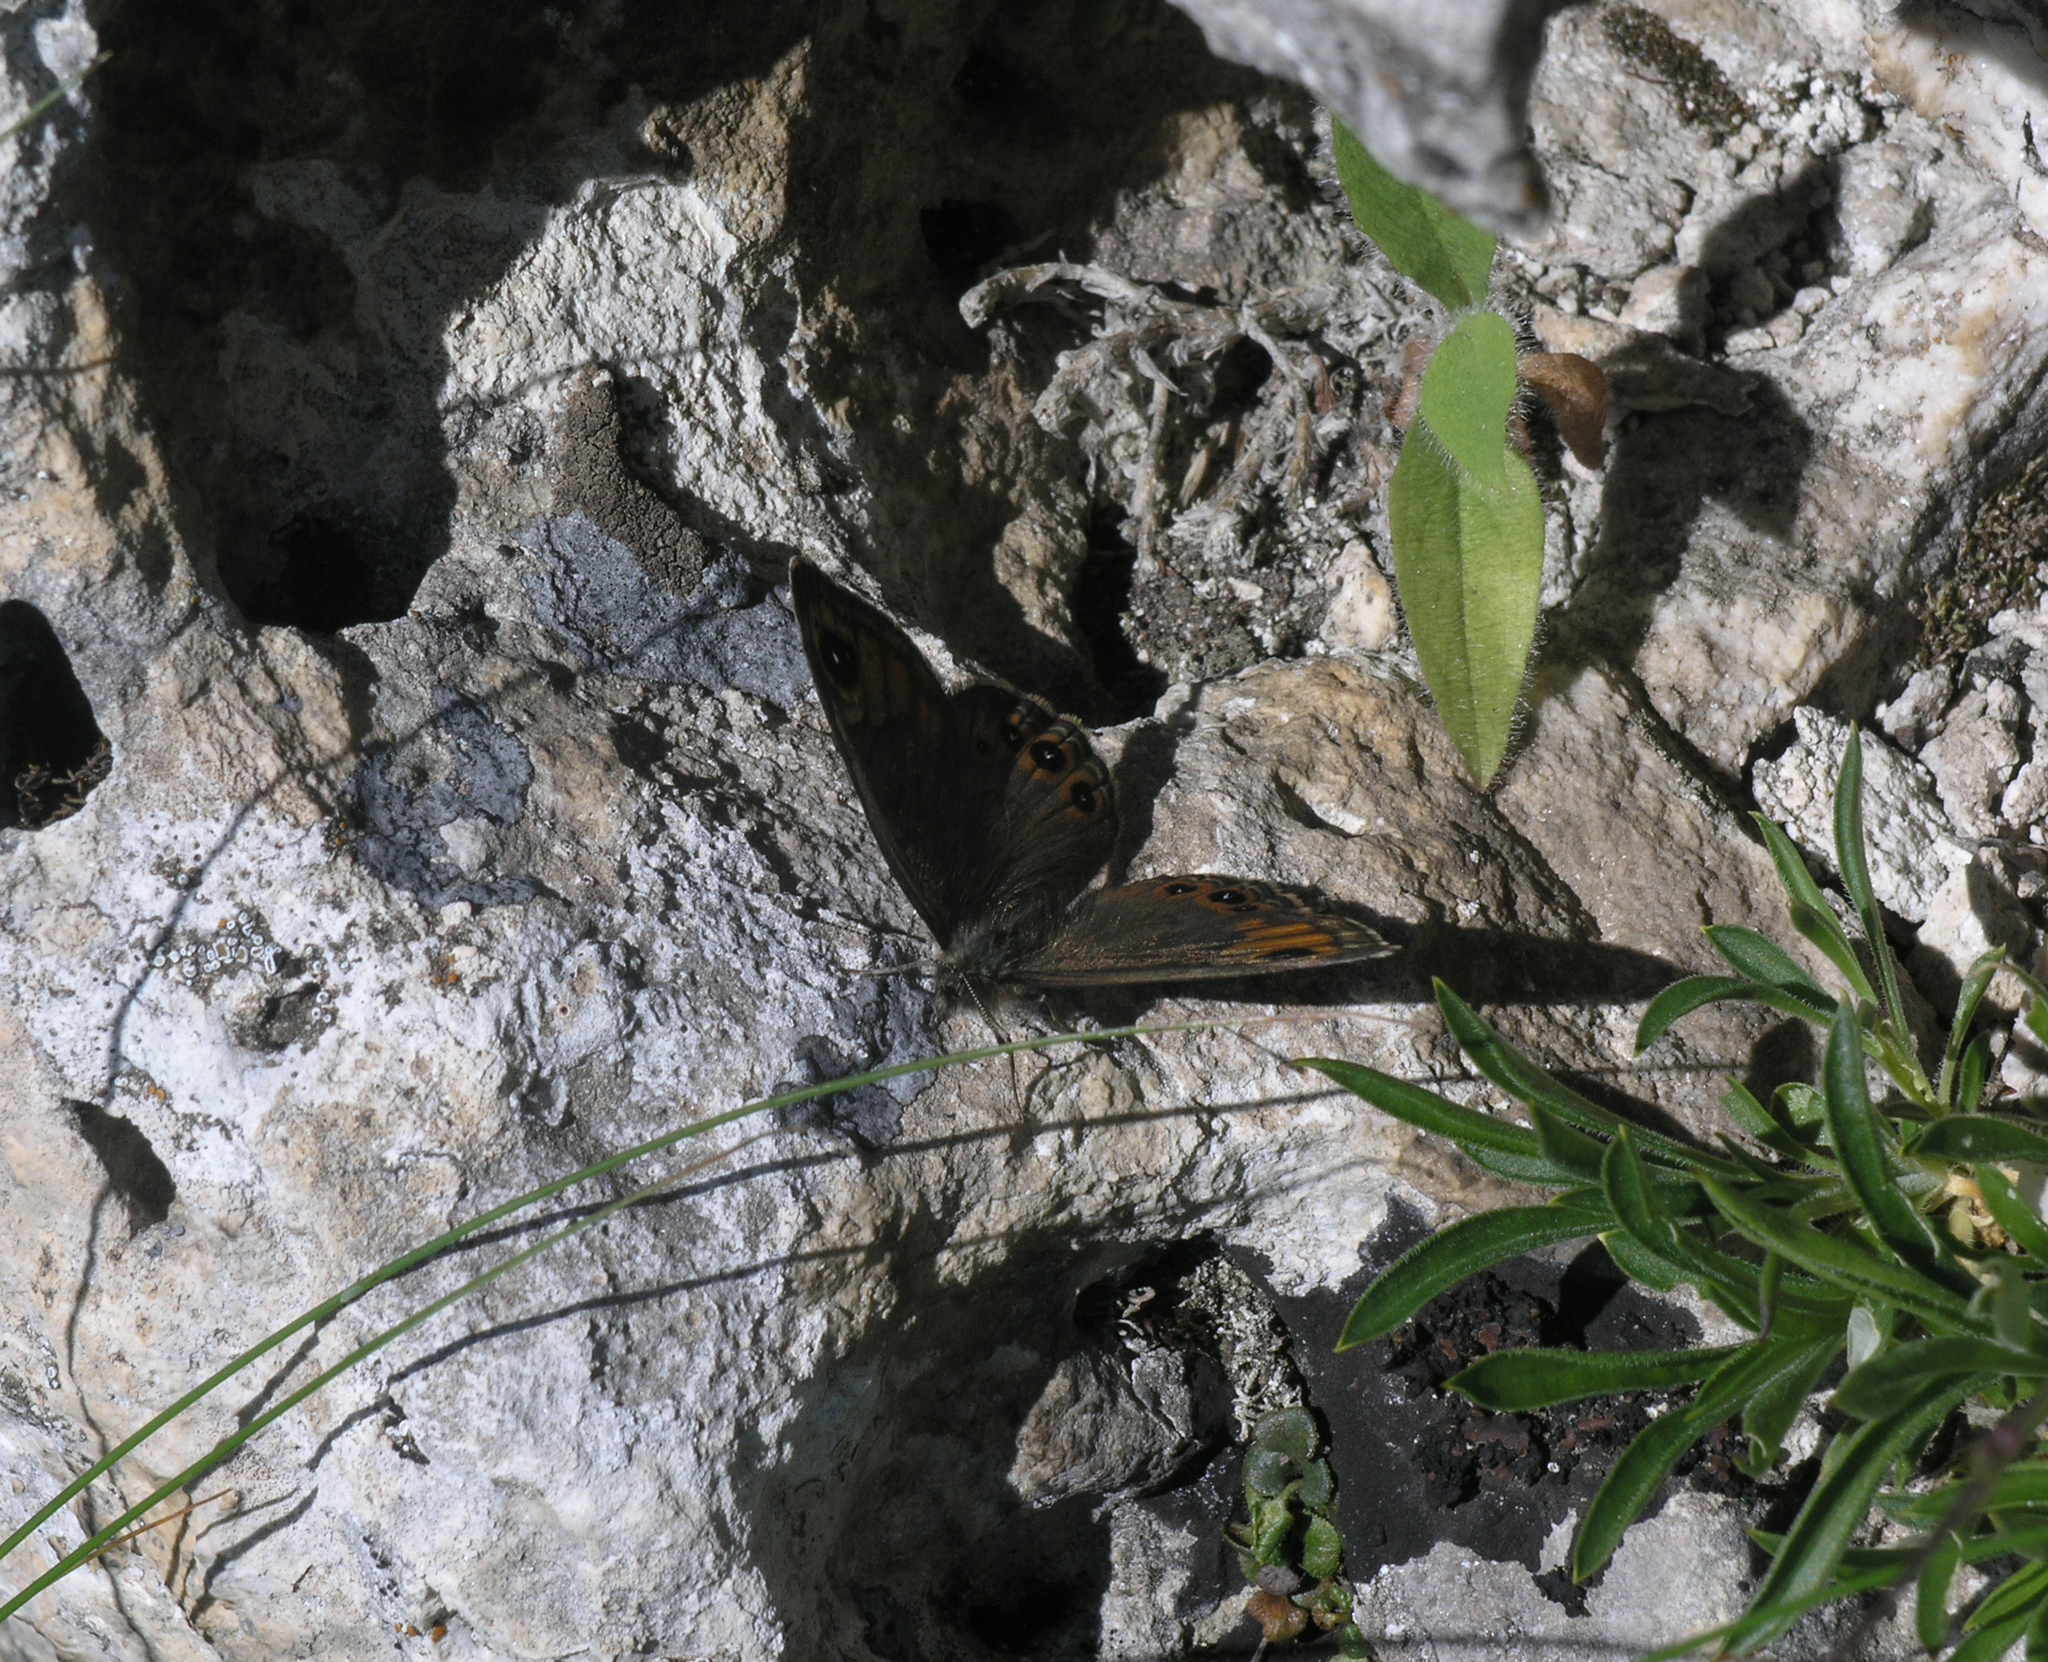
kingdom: Animalia
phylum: Arthropoda
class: Insecta
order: Lepidoptera
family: Nymphalidae
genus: Pararge
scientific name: Pararge petropolitana
